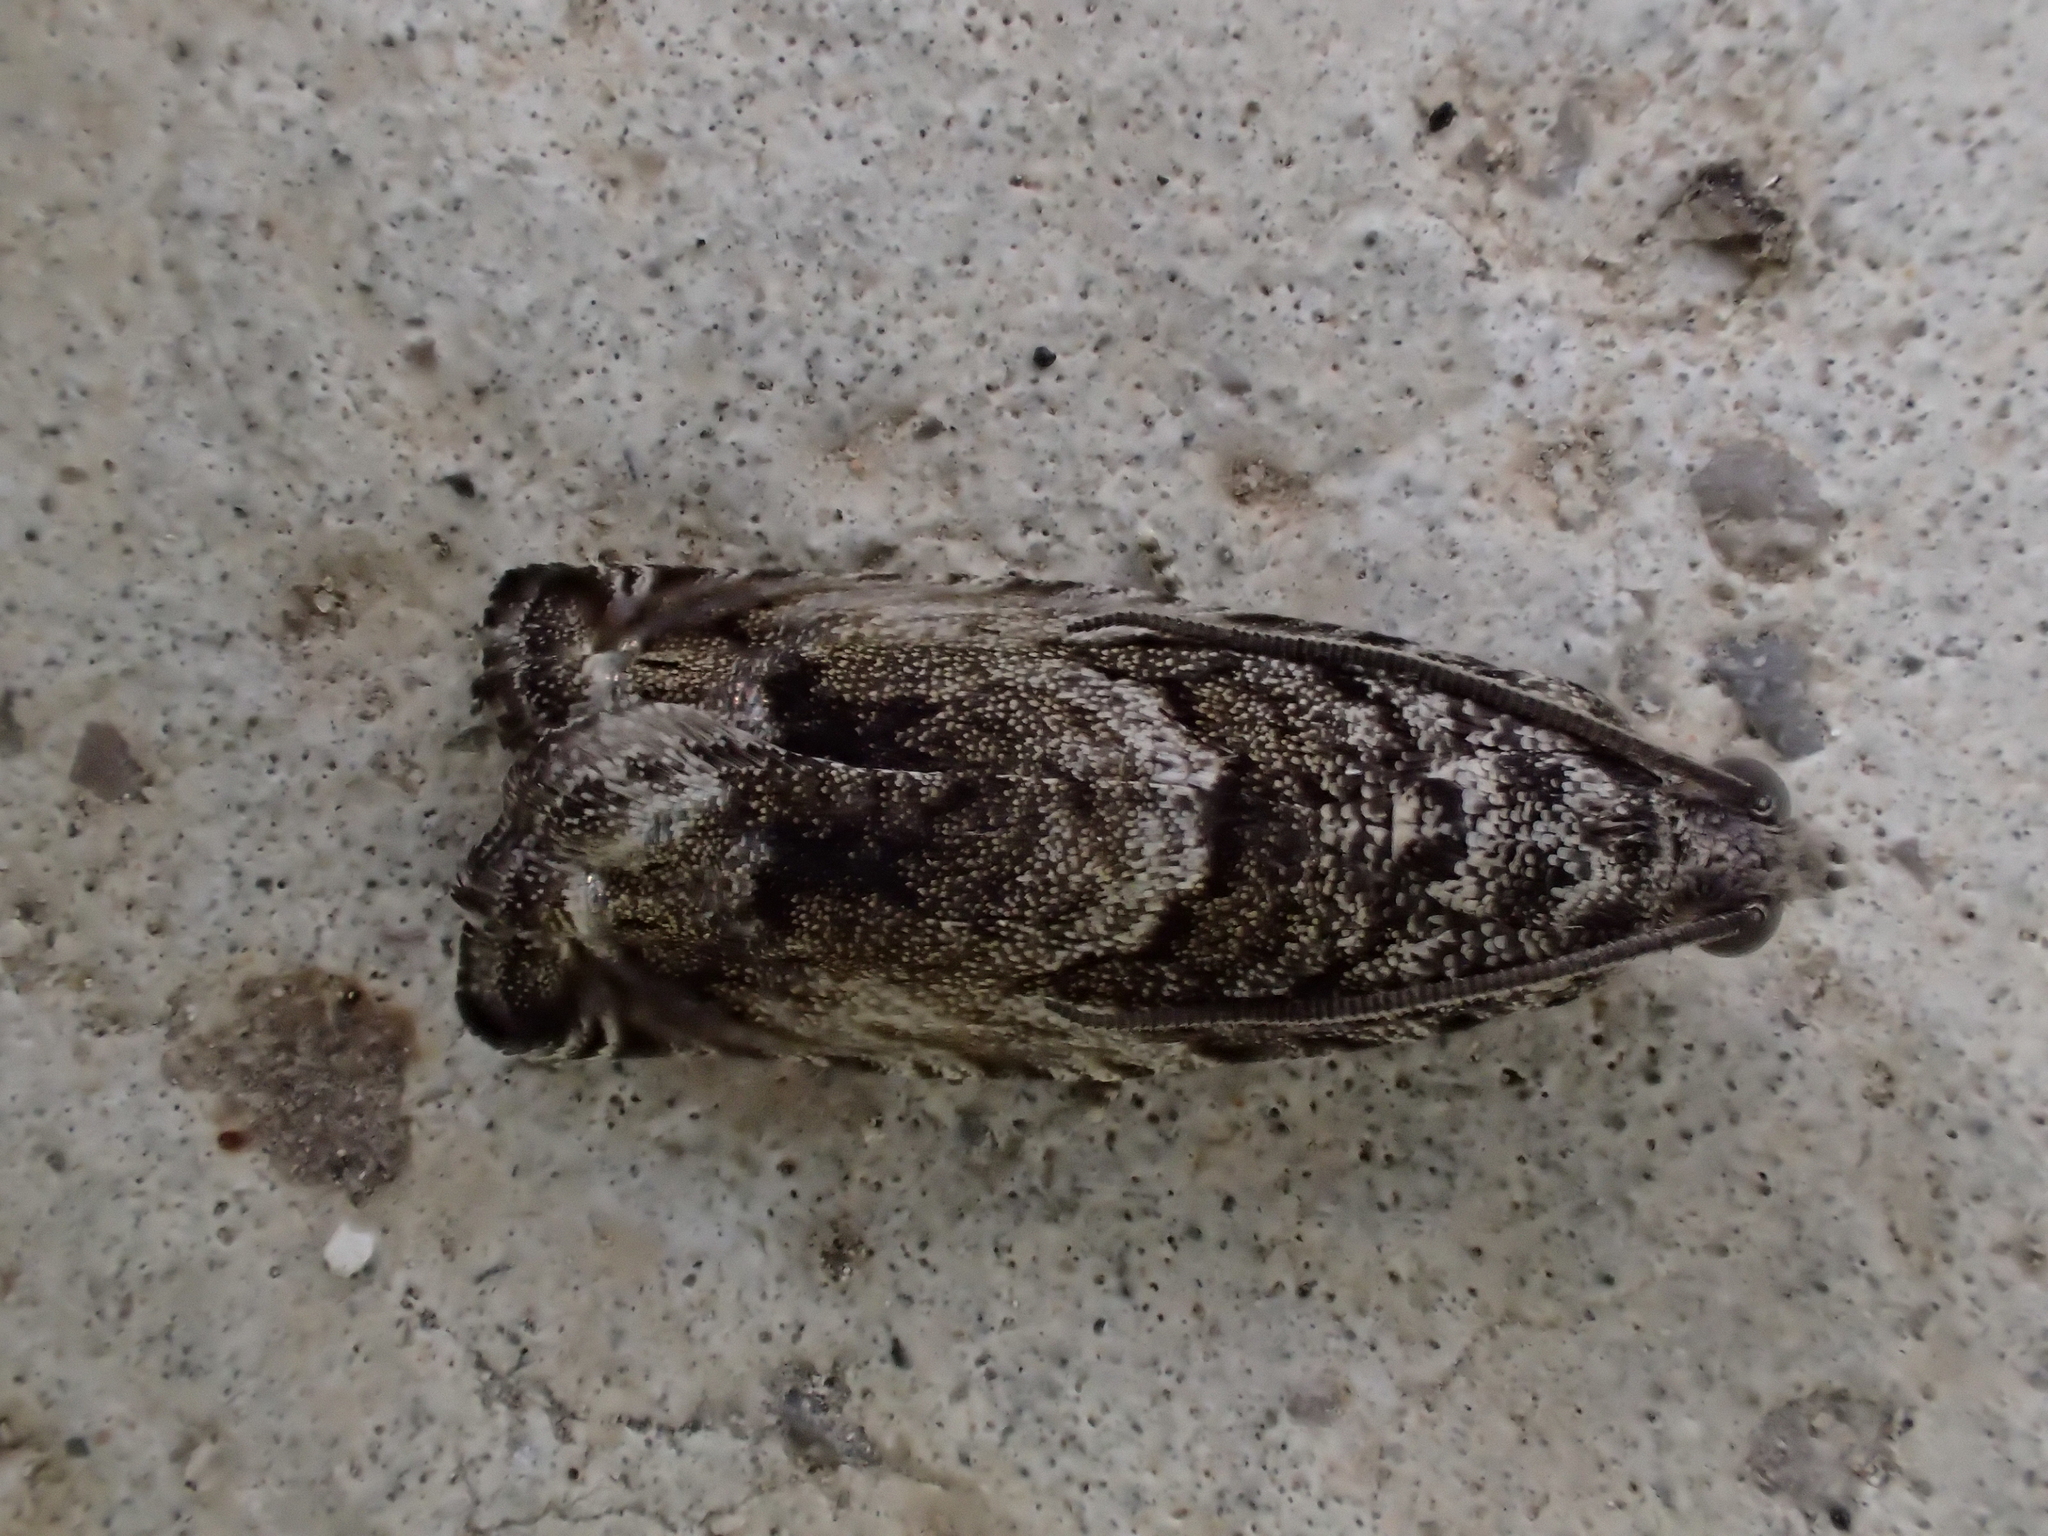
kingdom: Animalia
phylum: Arthropoda
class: Insecta
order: Lepidoptera
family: Tortricidae
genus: Cydia
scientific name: Cydia fagiglandana
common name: Large beech piercer
